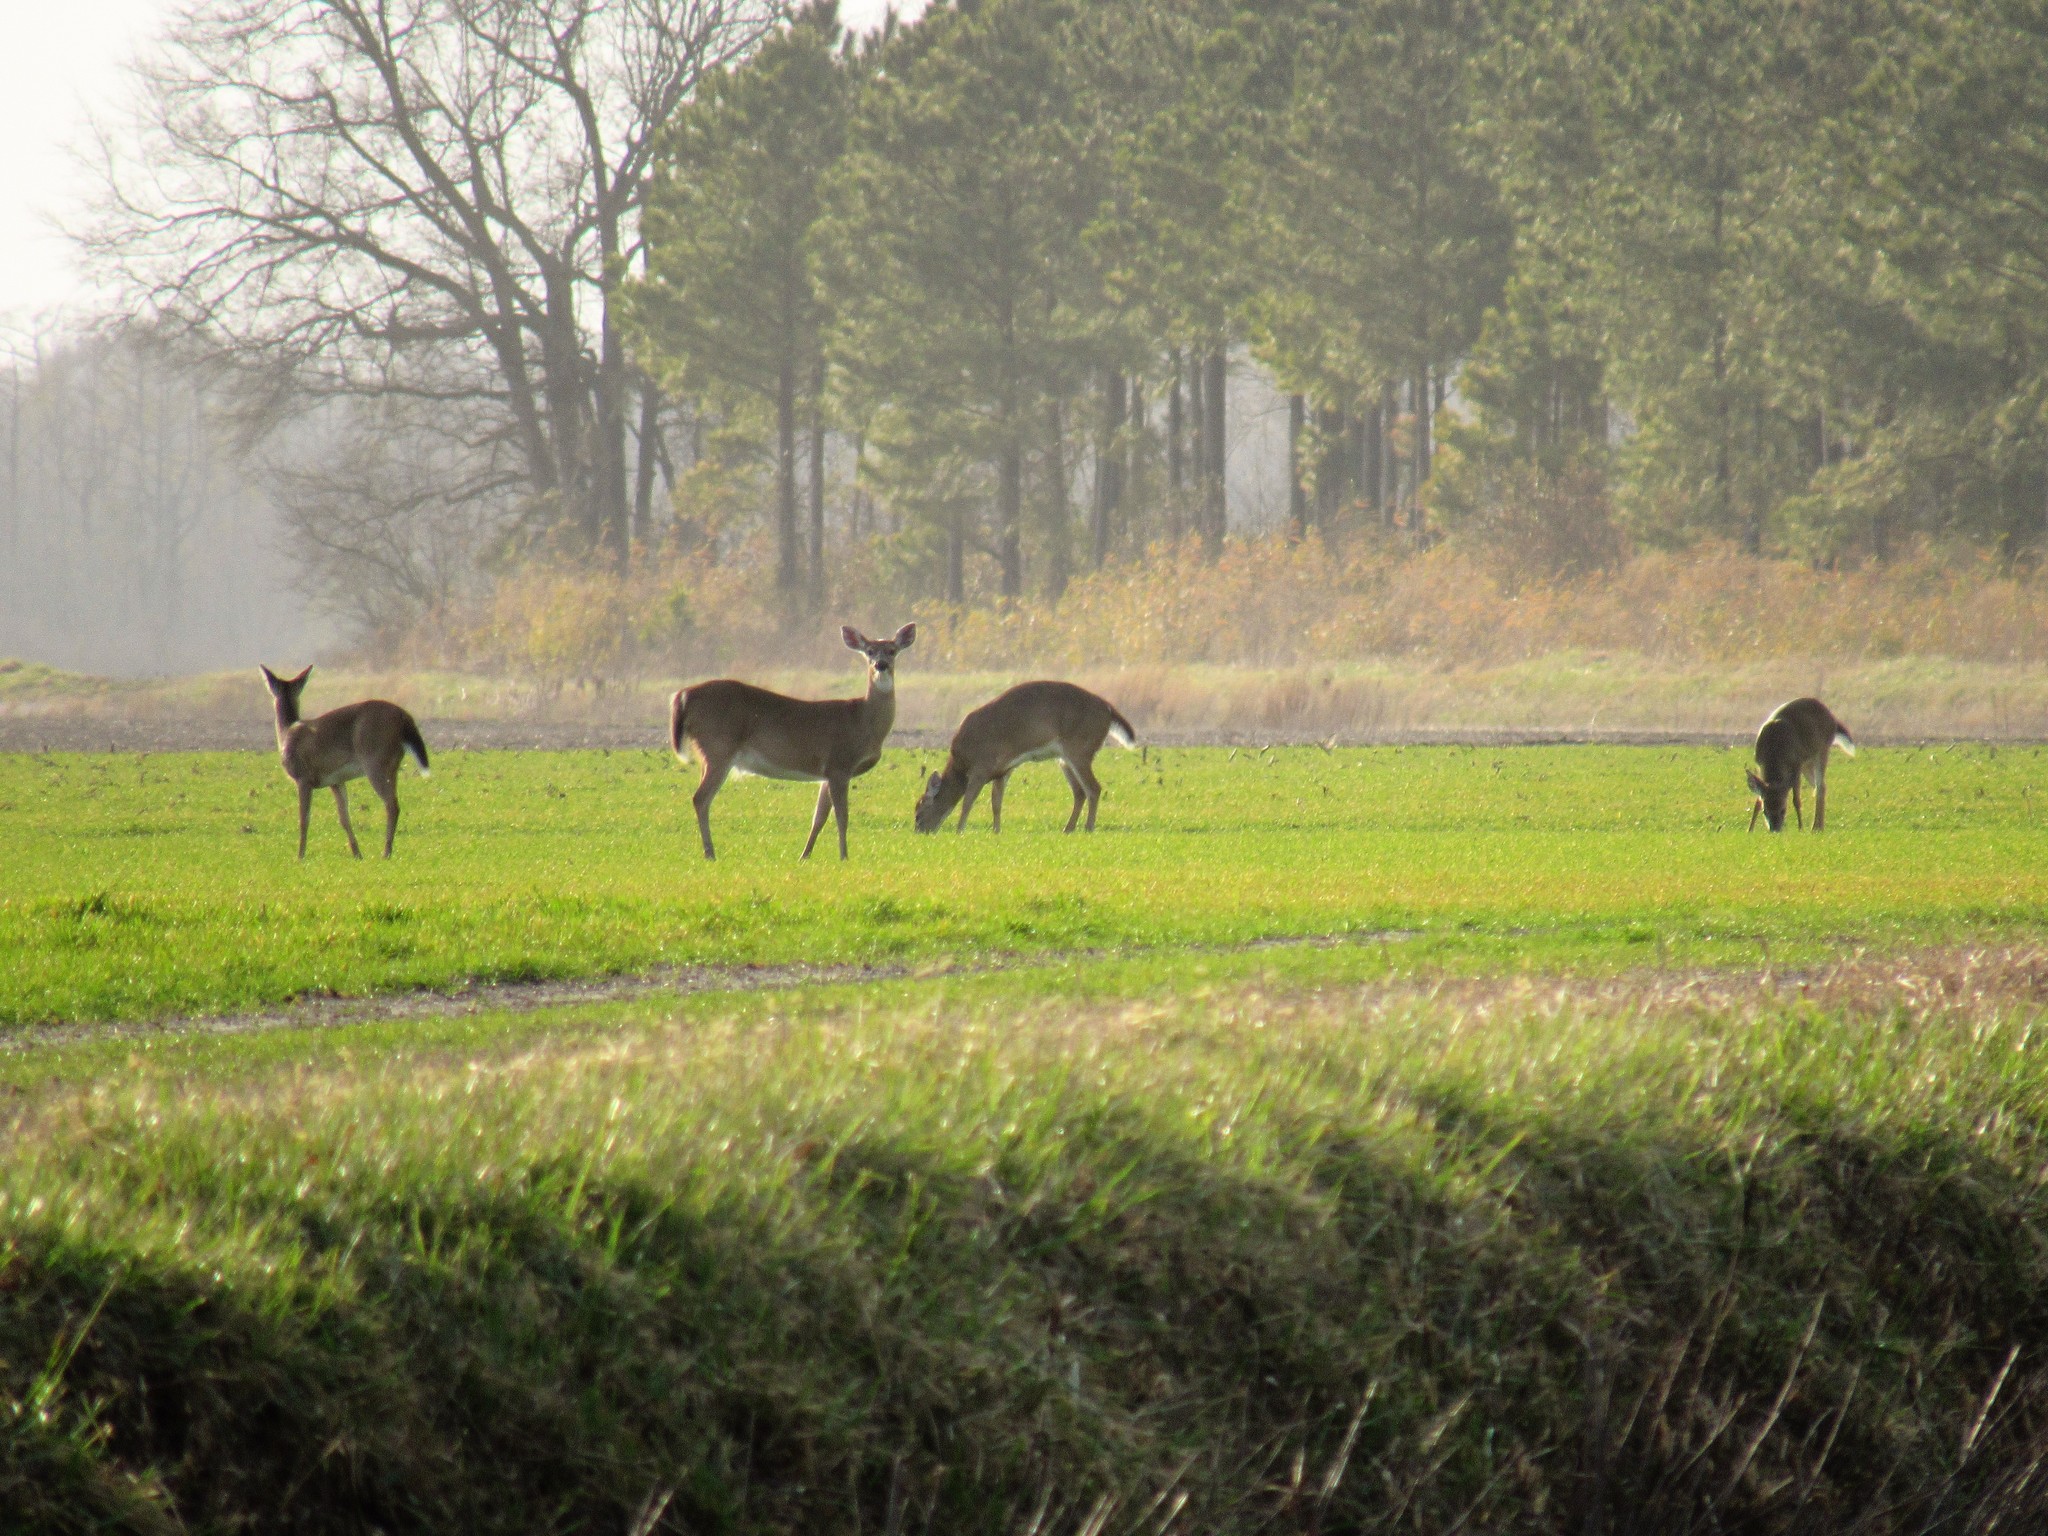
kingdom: Animalia
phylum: Chordata
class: Mammalia
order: Artiodactyla
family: Cervidae
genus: Odocoileus
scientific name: Odocoileus virginianus
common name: White-tailed deer
